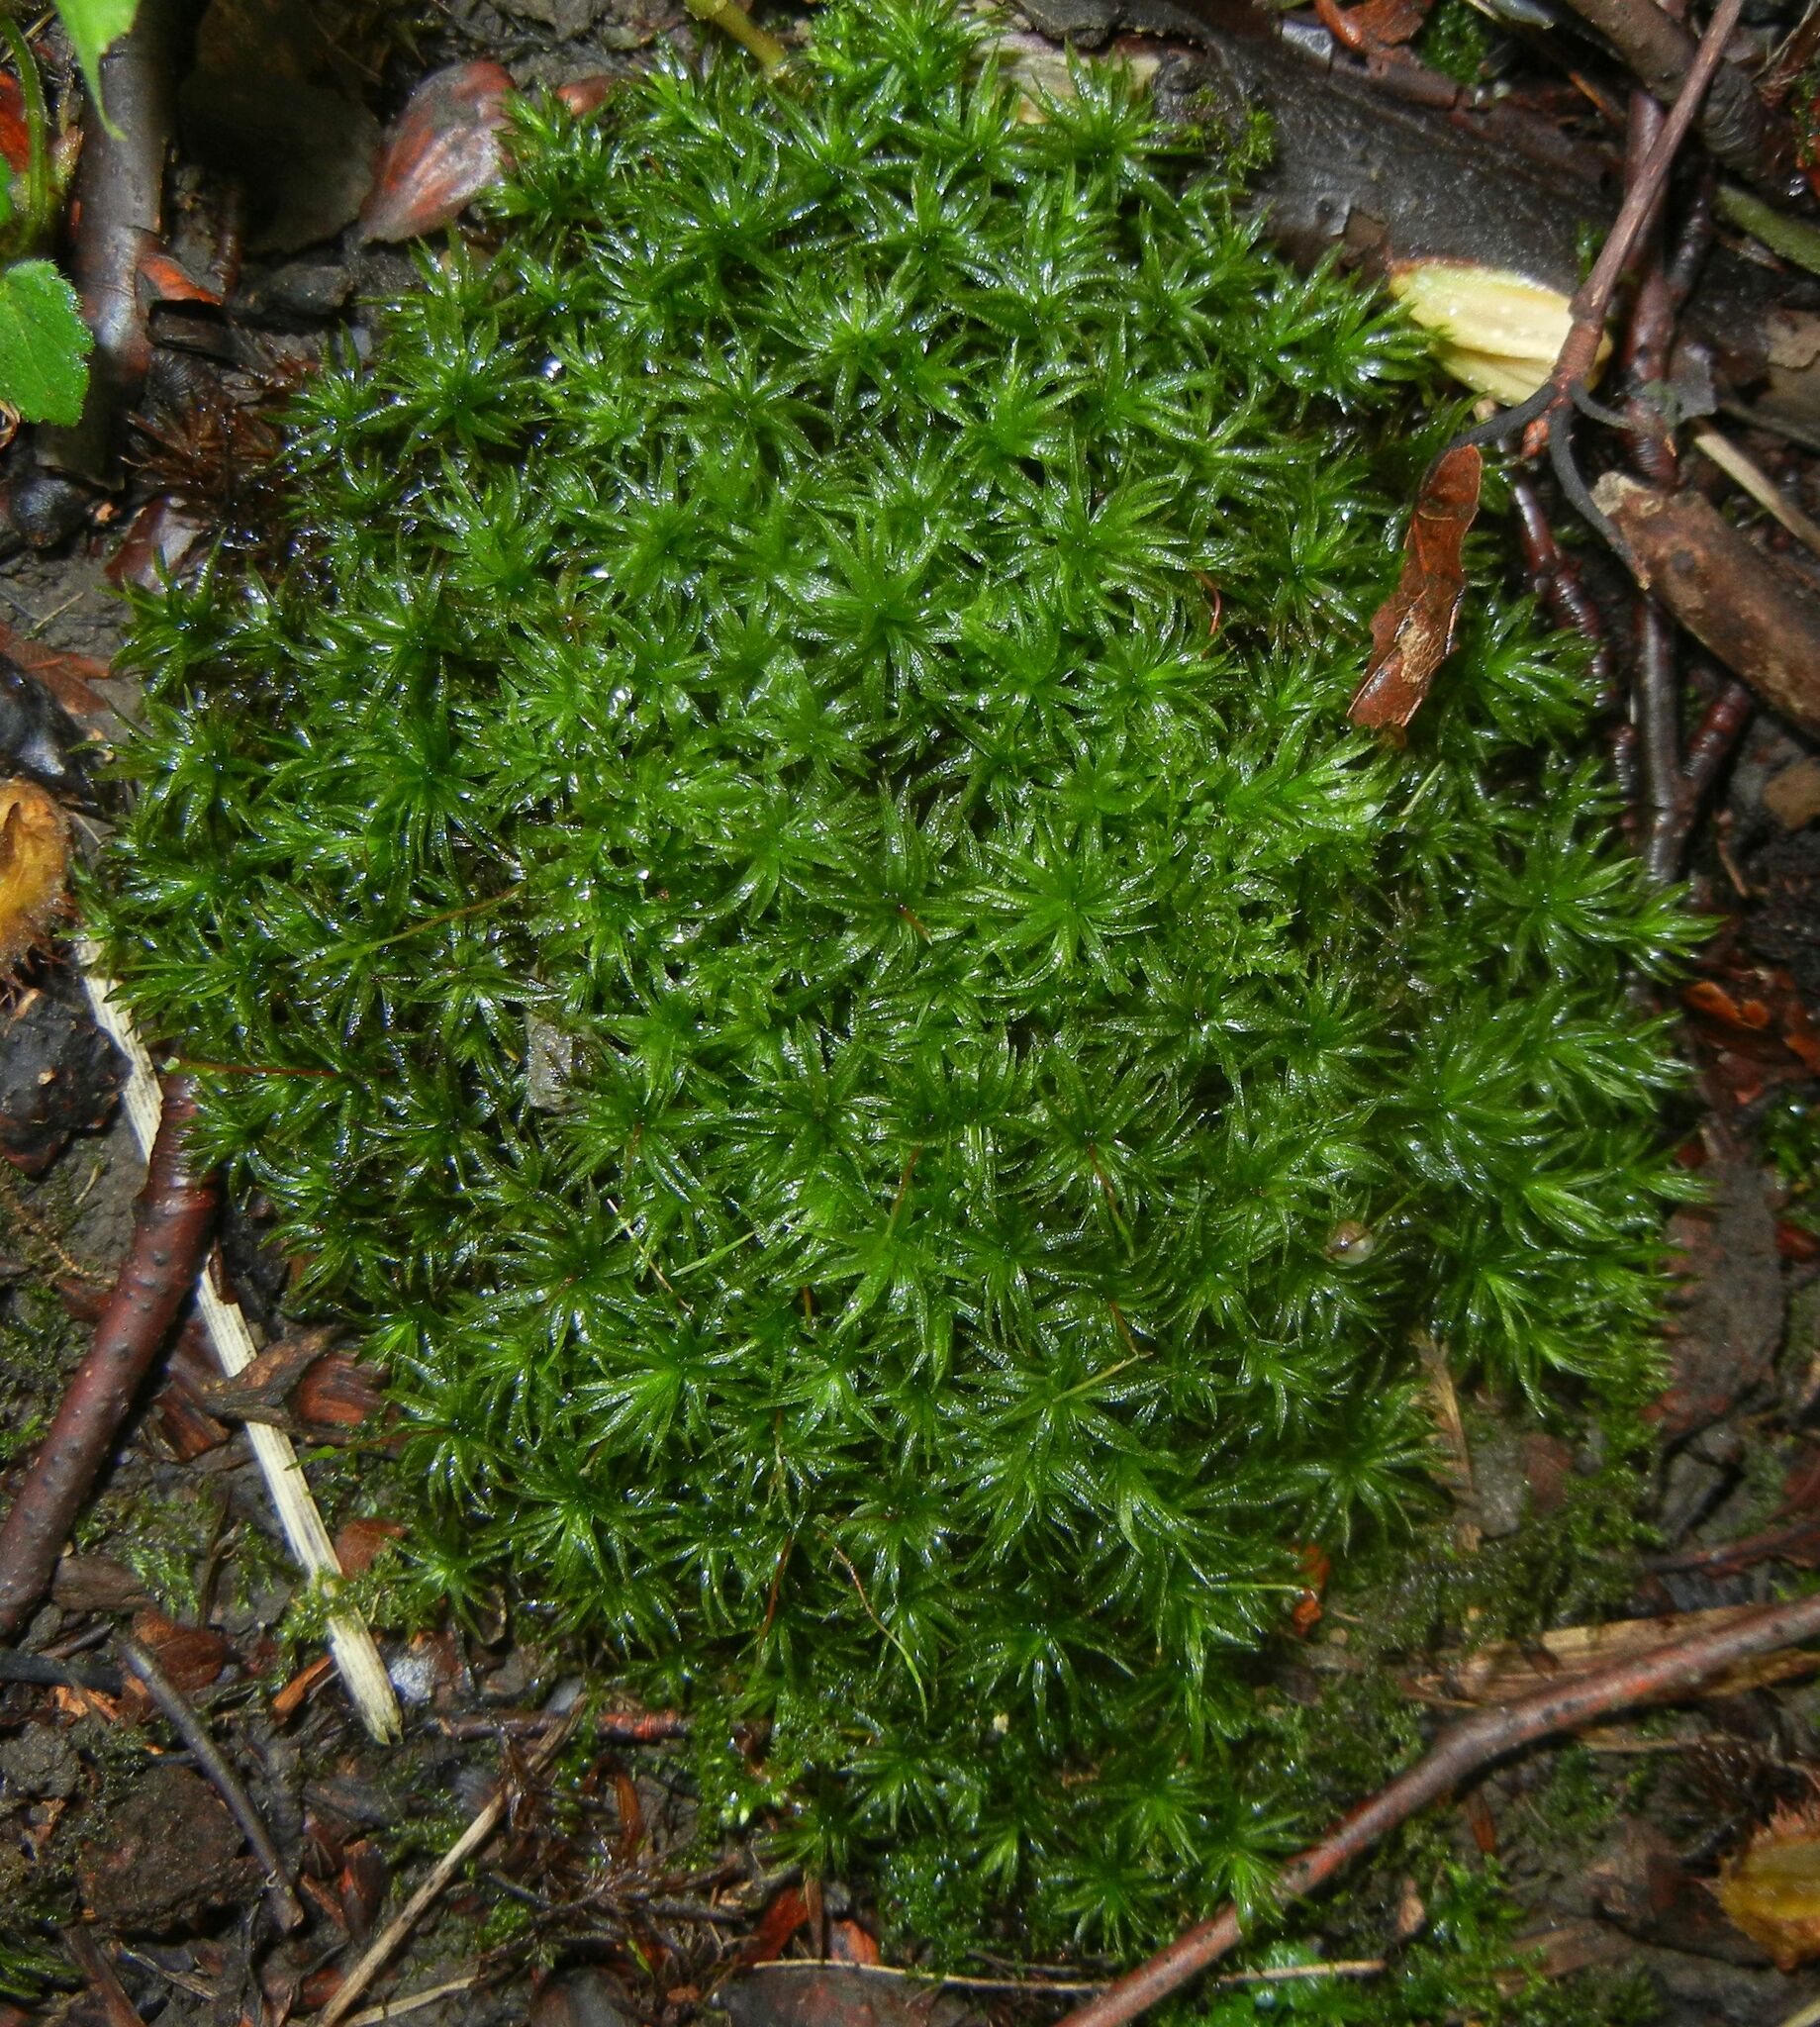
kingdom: Plantae
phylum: Bryophyta
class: Polytrichopsida
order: Polytrichales
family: Polytrichaceae
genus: Atrichum
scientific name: Atrichum undulatum
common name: Common smoothcap
